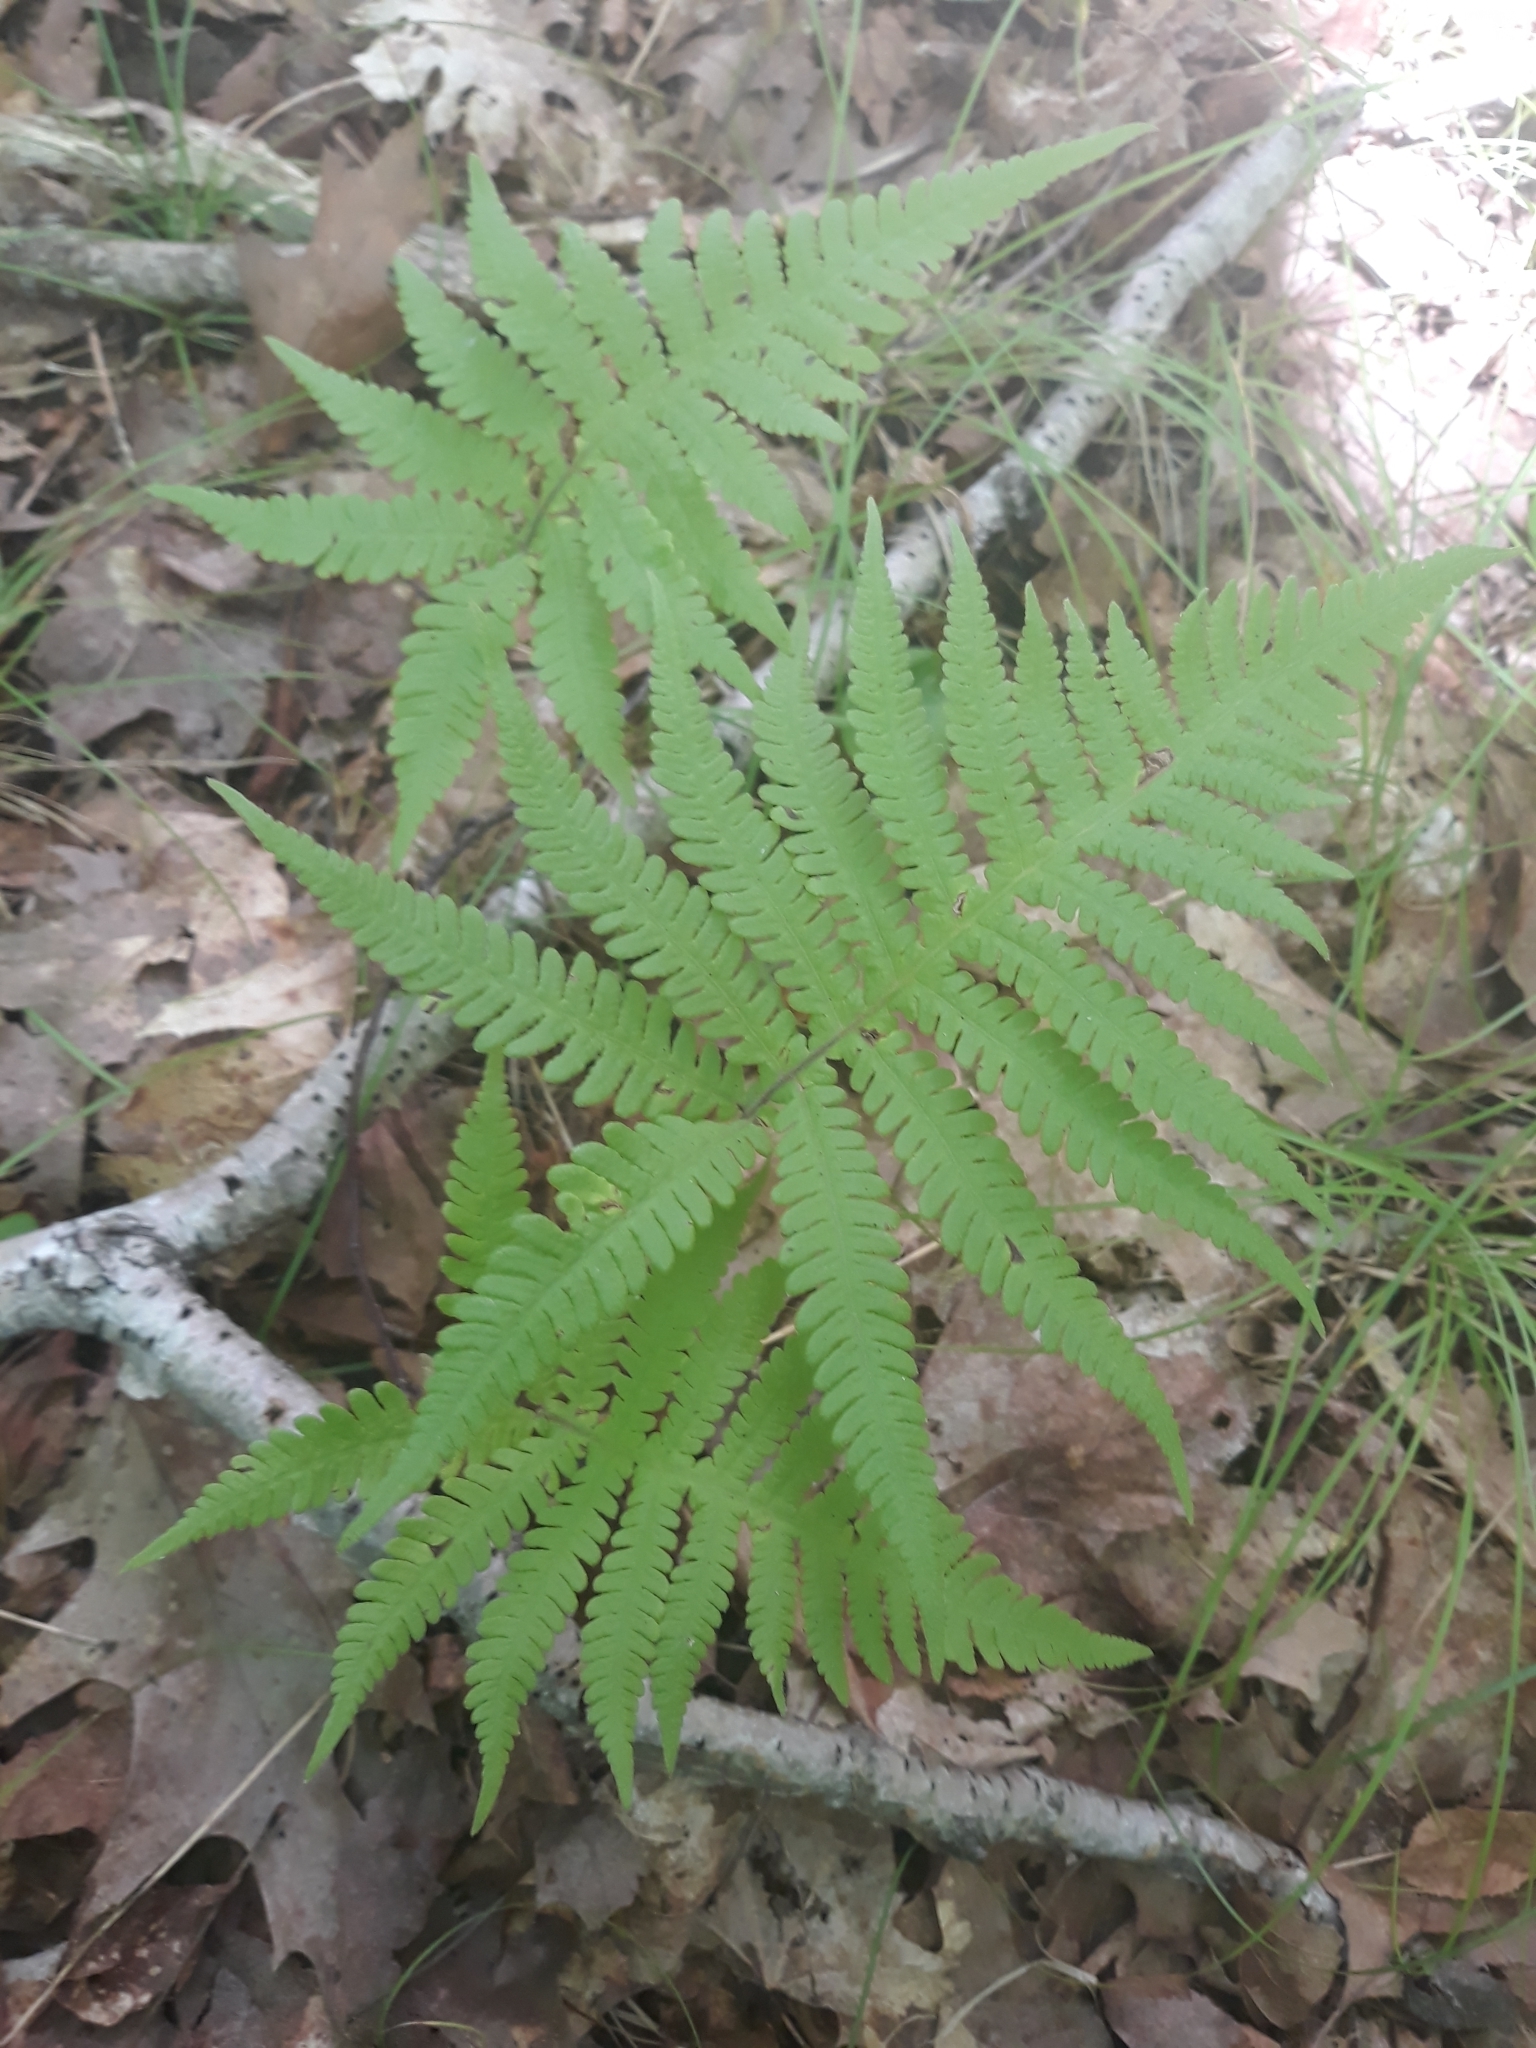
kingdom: Plantae
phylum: Tracheophyta
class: Polypodiopsida
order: Polypodiales
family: Thelypteridaceae
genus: Phegopteris
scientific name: Phegopteris connectilis
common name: Beech fern
